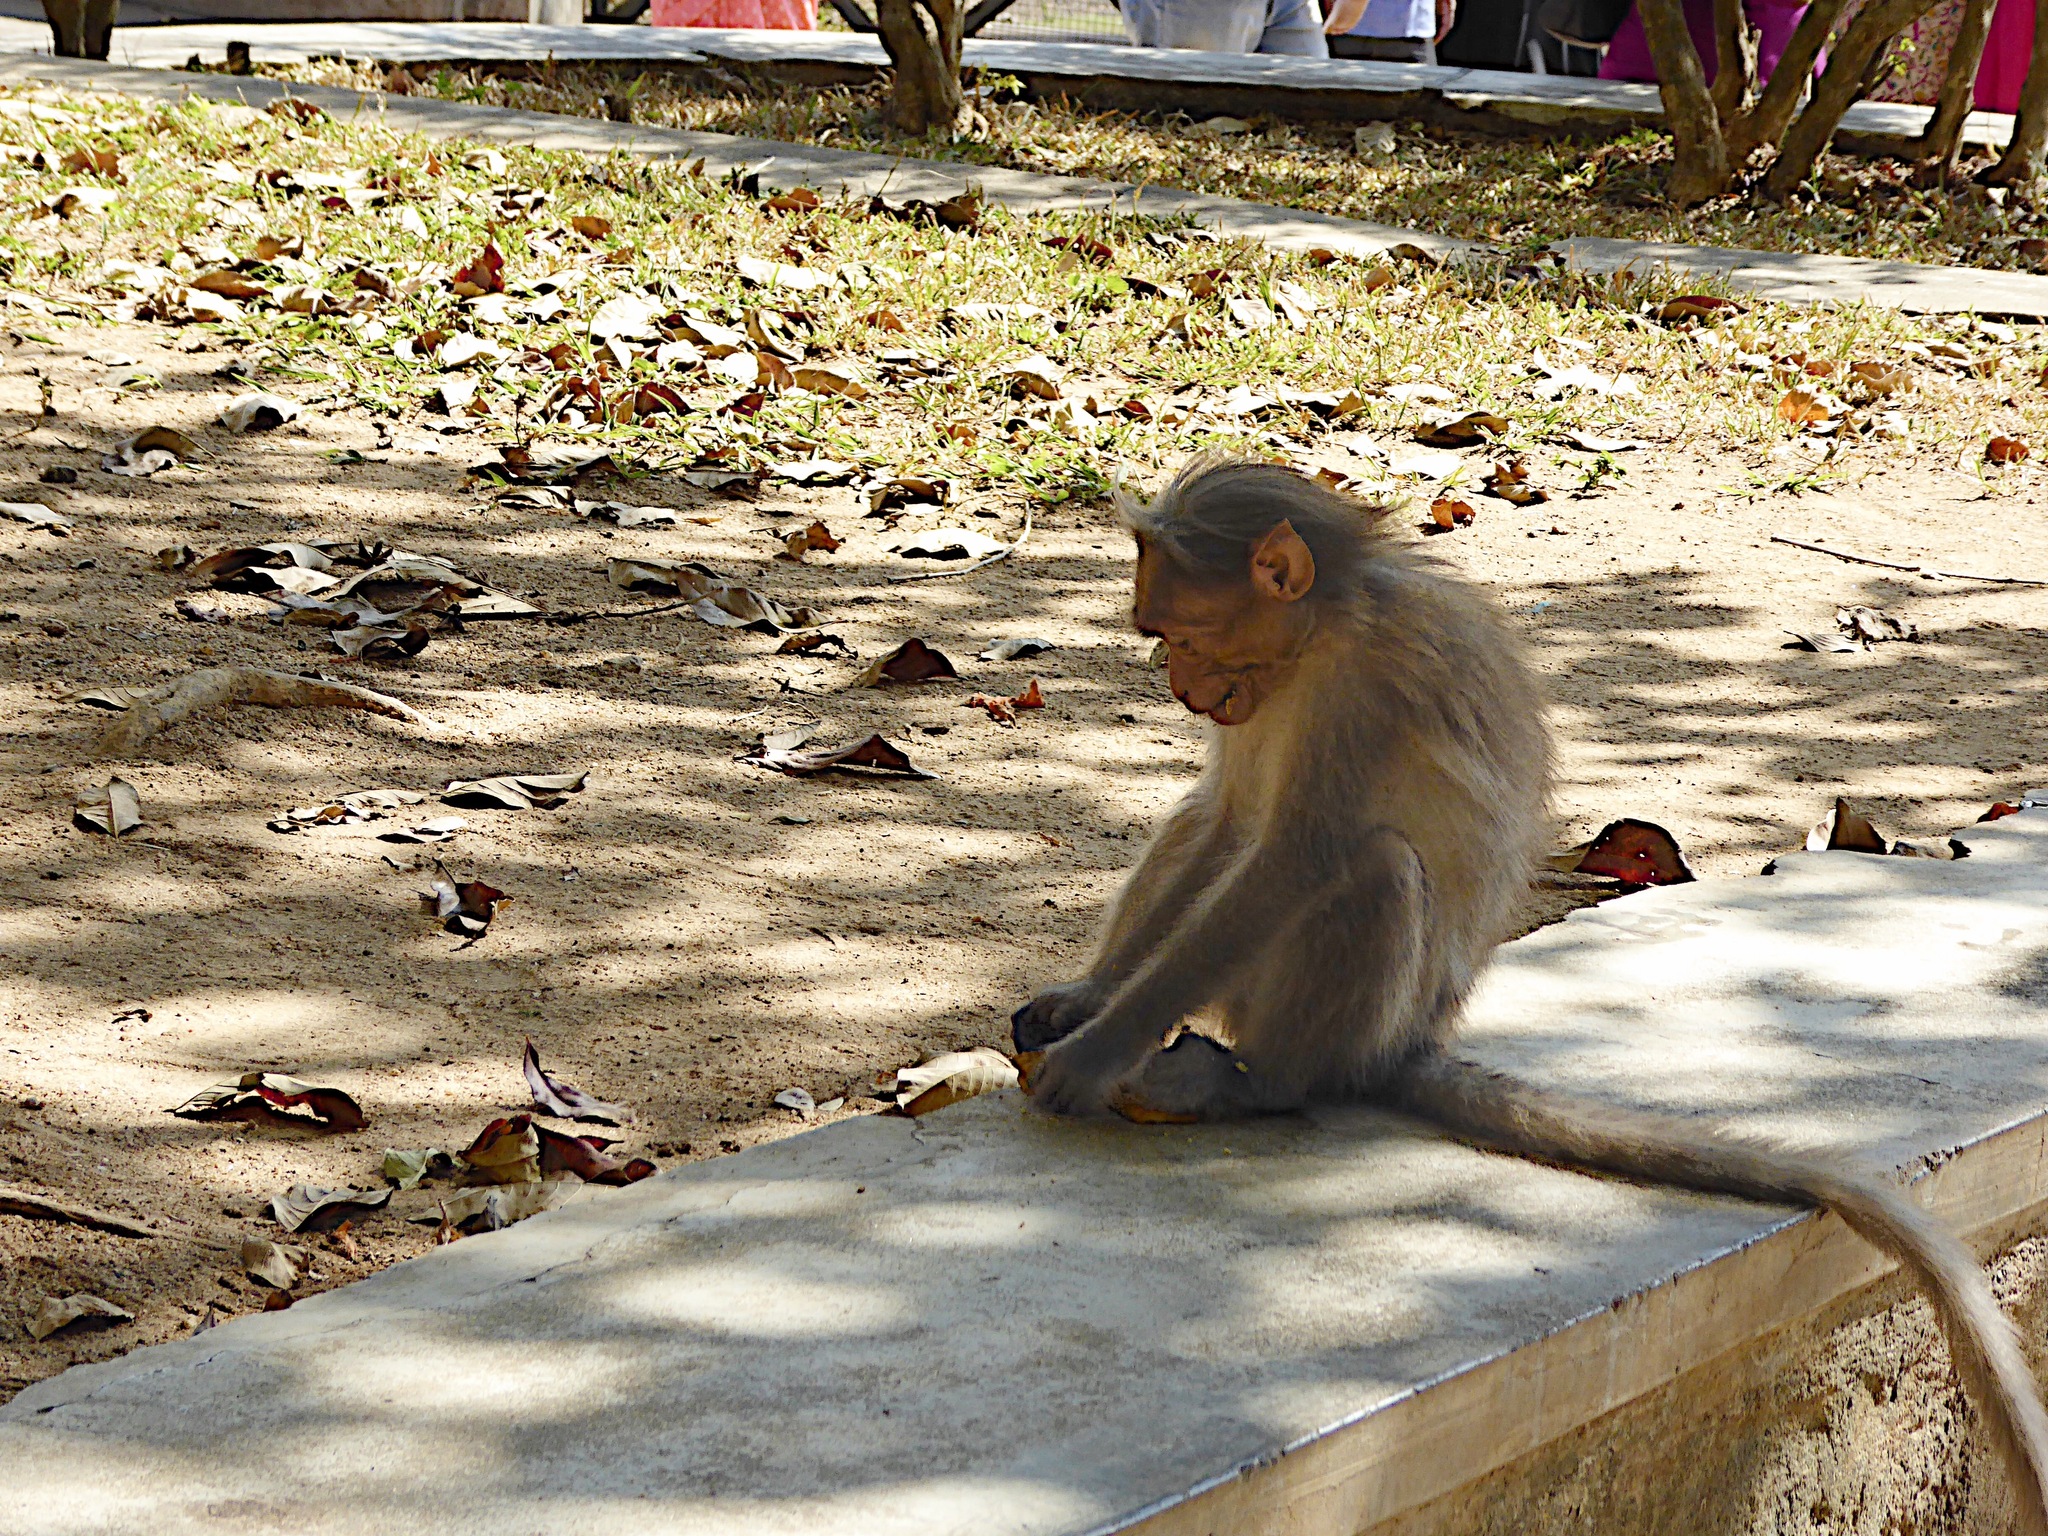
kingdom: Animalia
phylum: Chordata
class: Mammalia
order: Primates
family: Cercopithecidae
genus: Macaca
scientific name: Macaca radiata
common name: Bonnet macaque
